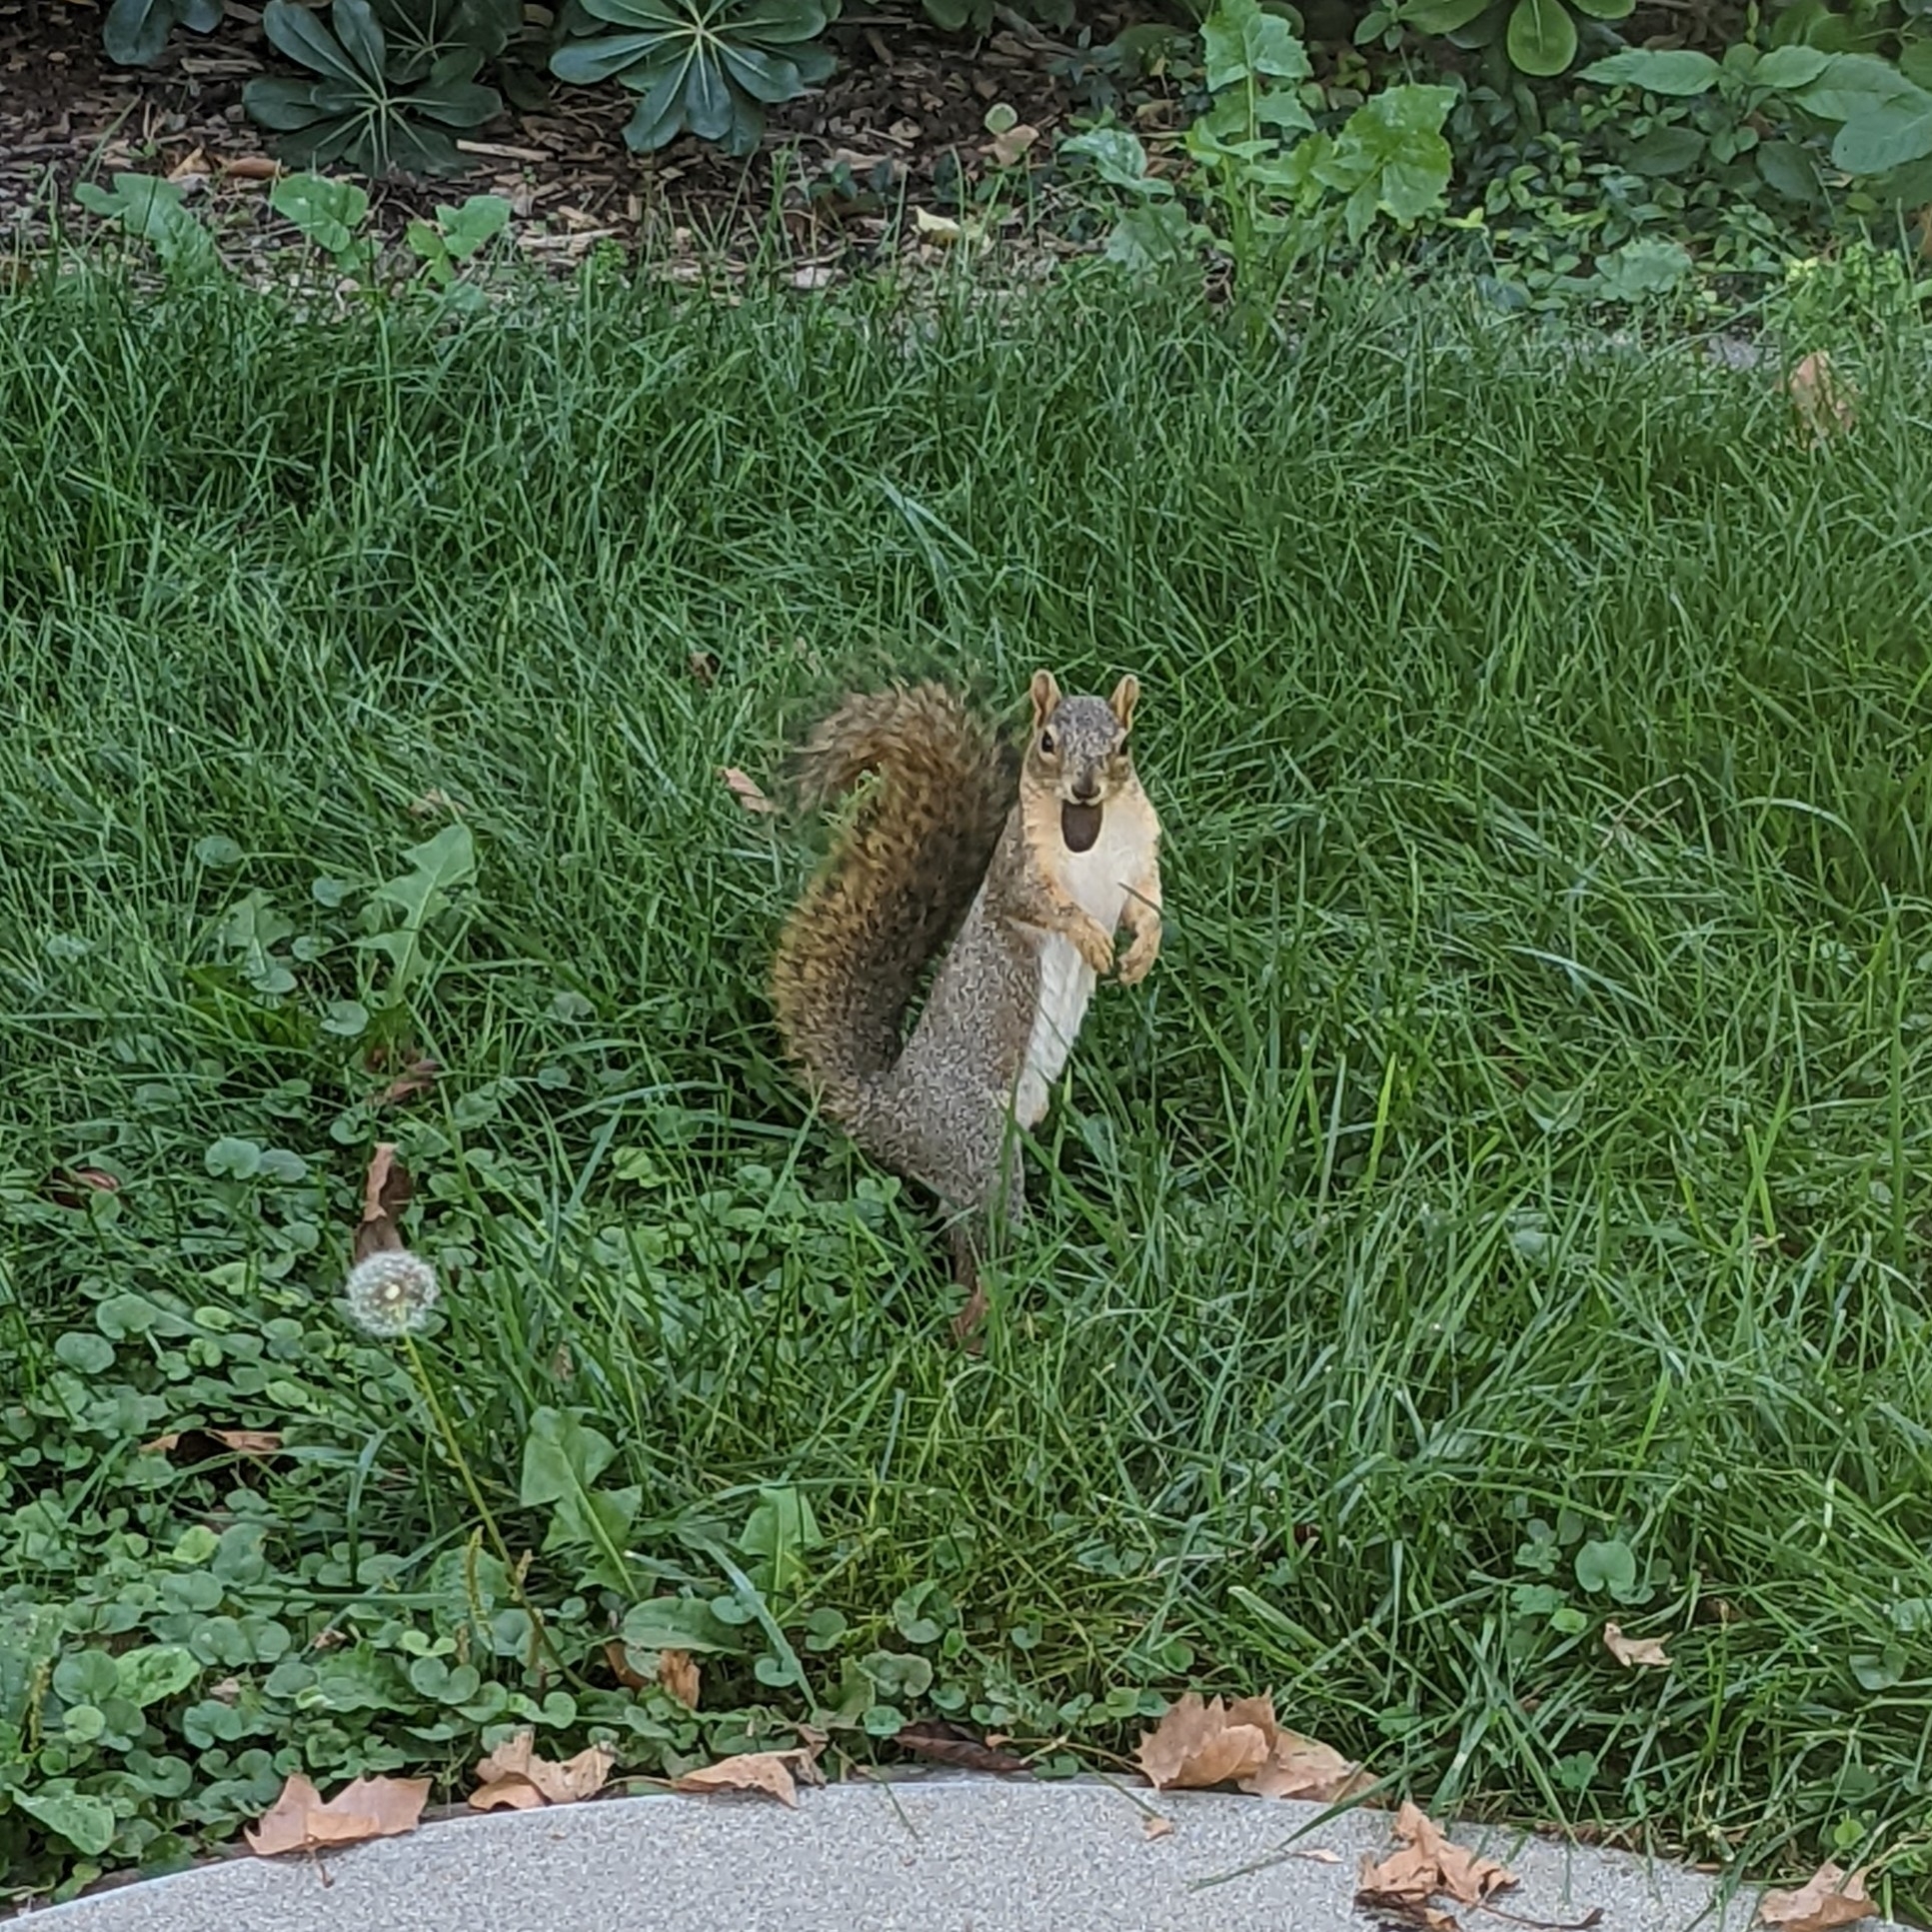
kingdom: Animalia
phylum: Chordata
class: Mammalia
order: Rodentia
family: Sciuridae
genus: Sciurus
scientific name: Sciurus niger
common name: Fox squirrel
